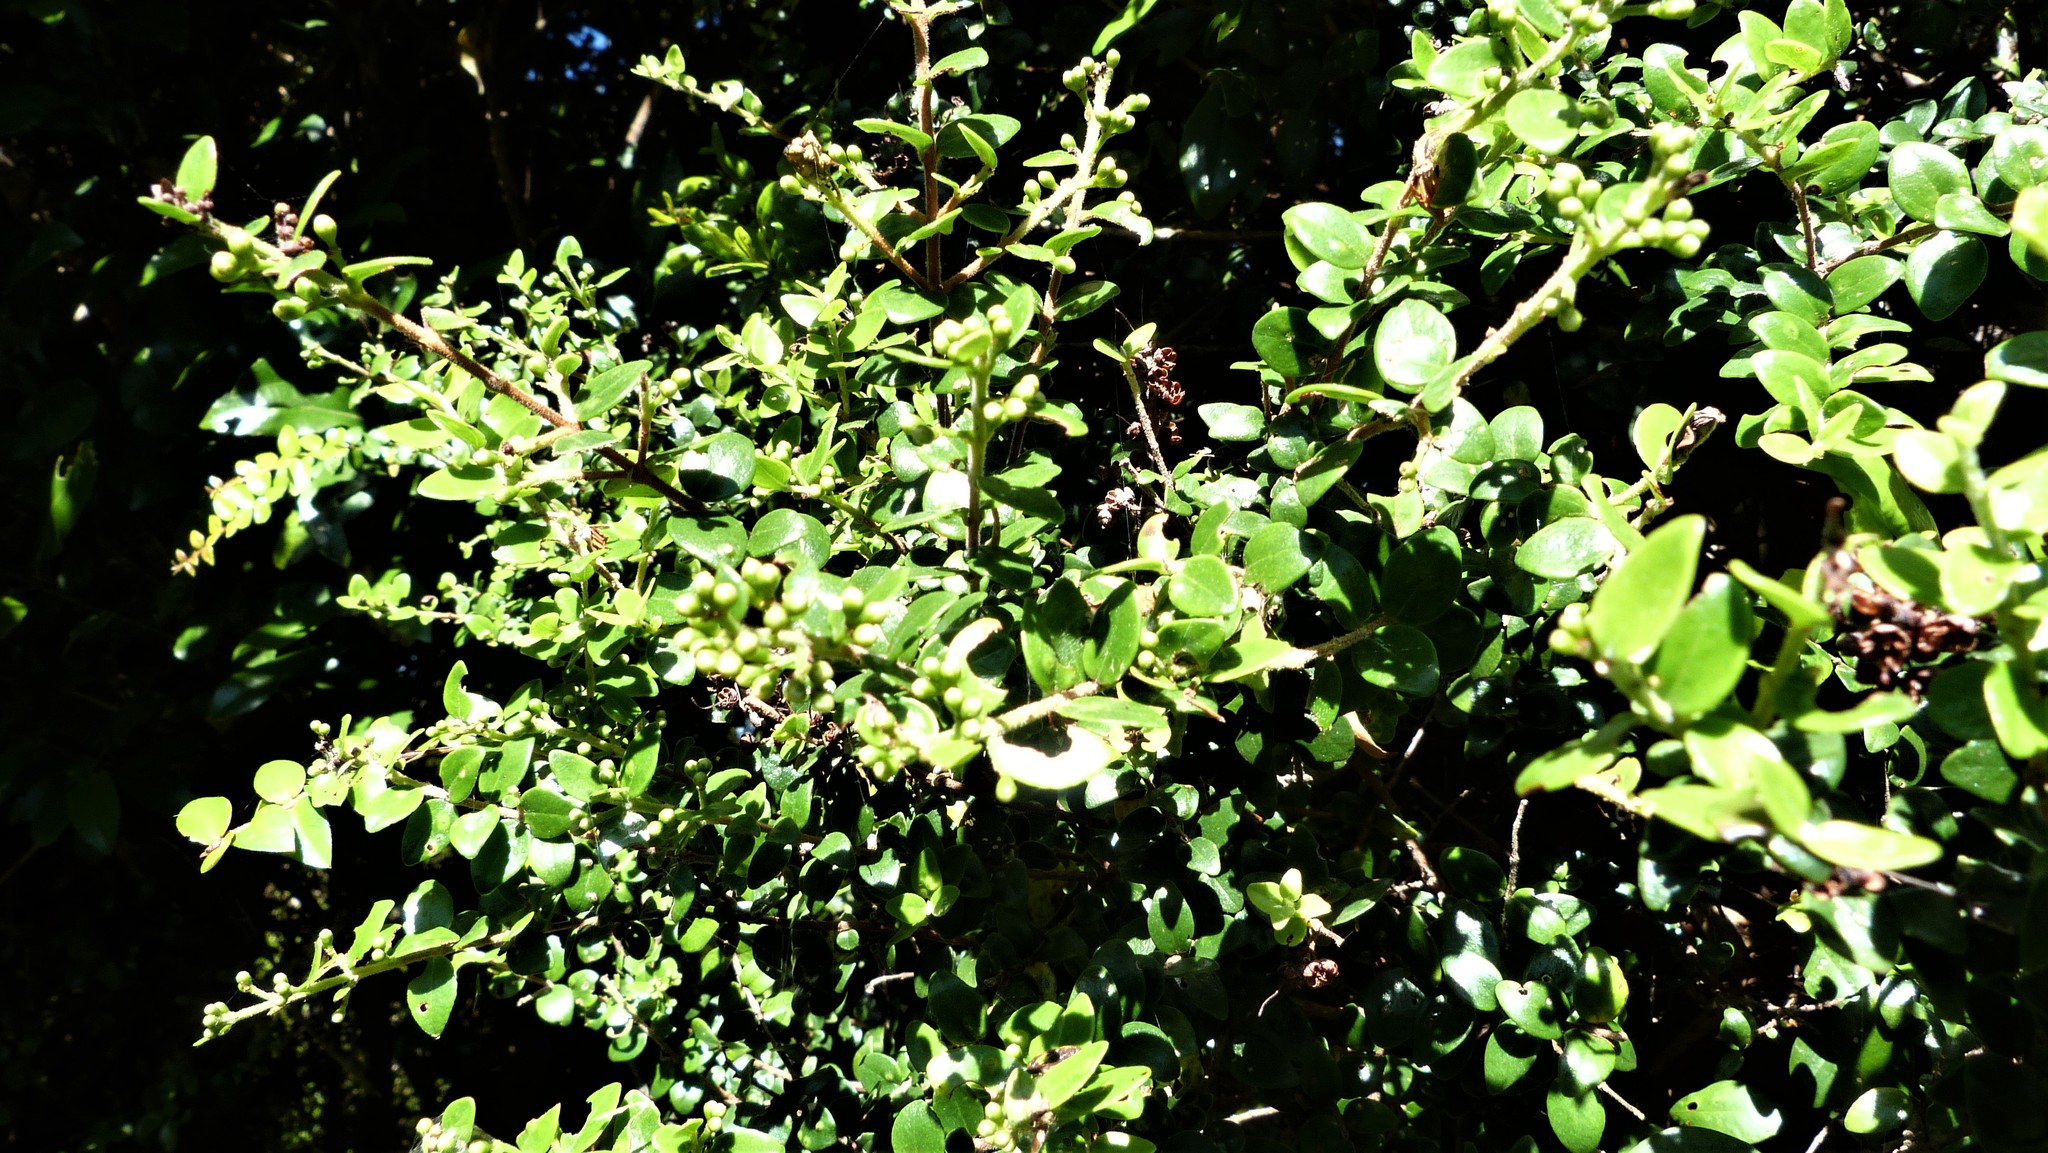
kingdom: Plantae
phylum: Tracheophyta
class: Magnoliopsida
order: Myrtales
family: Myrtaceae
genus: Metrosideros
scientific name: Metrosideros perforata
